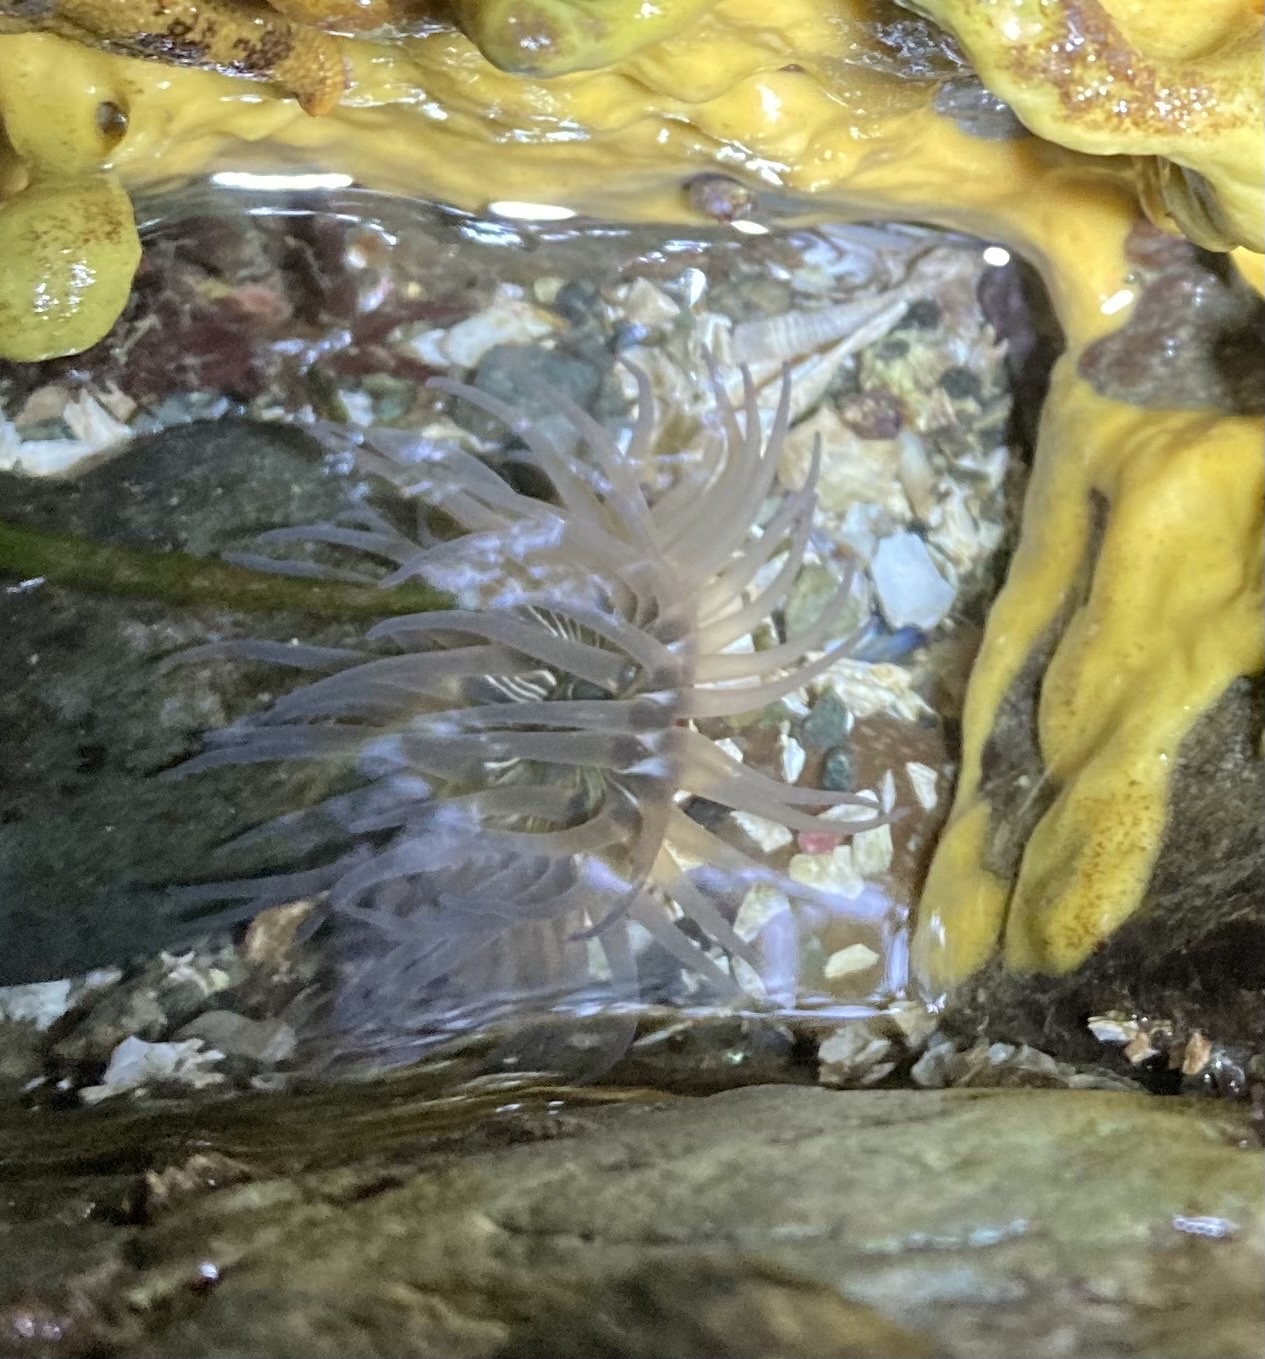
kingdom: Animalia
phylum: Cnidaria
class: Anthozoa
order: Actiniaria
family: Actiniidae
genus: Aulactinia
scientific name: Aulactinia incubans
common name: Incubating anemone
